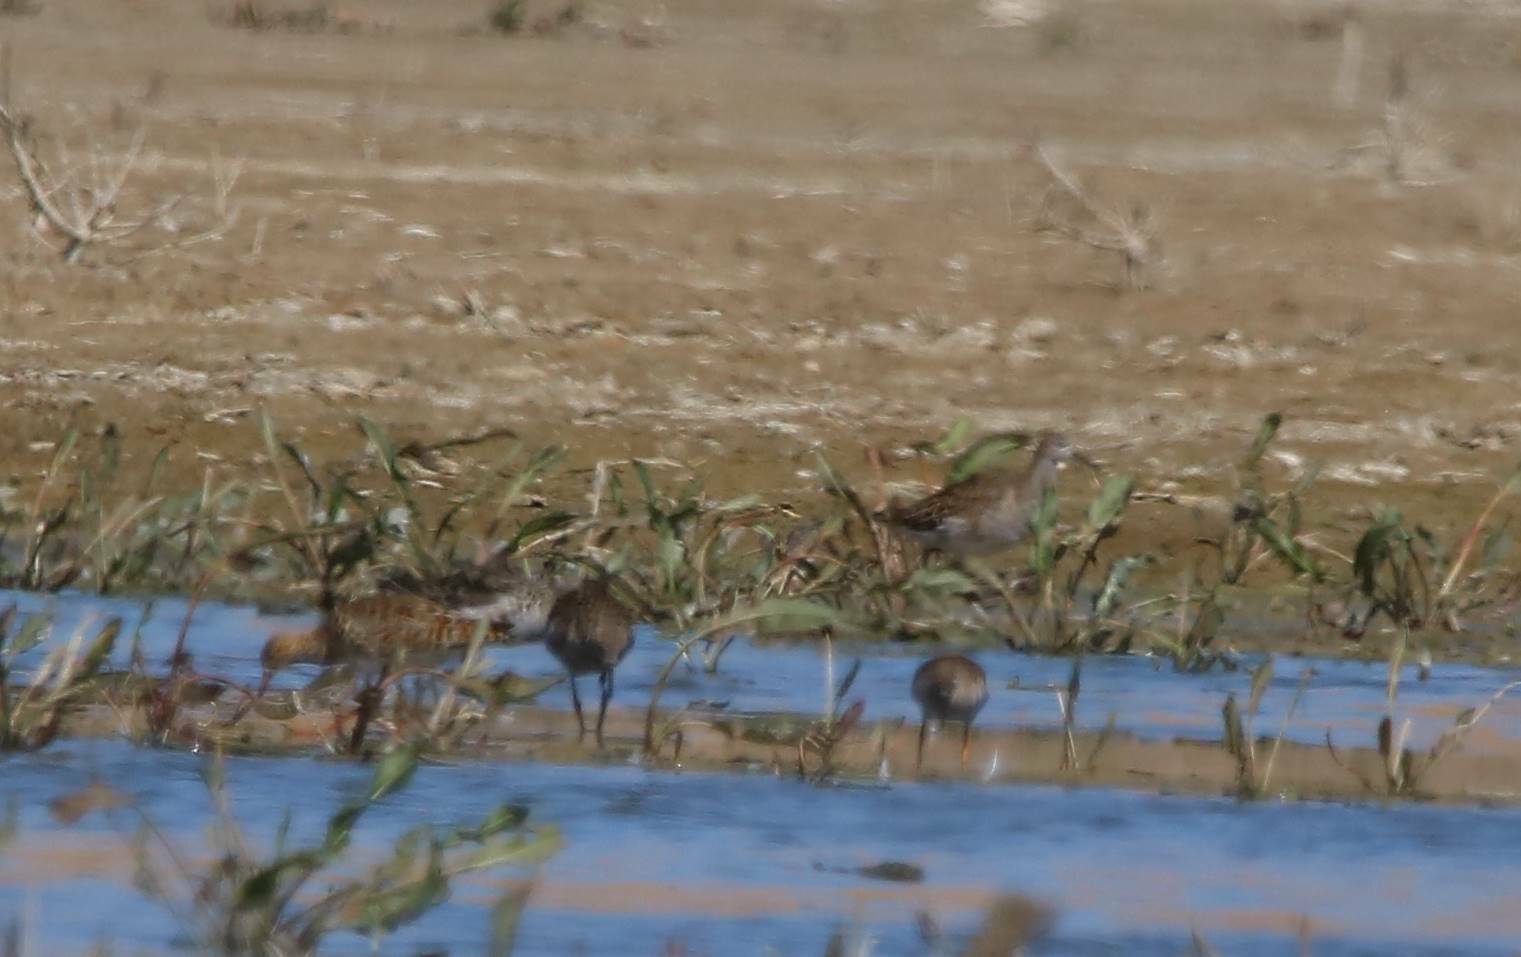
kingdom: Animalia
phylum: Chordata
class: Aves
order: Charadriiformes
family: Scolopacidae
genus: Calidris
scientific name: Calidris pugnax
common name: Ruff
